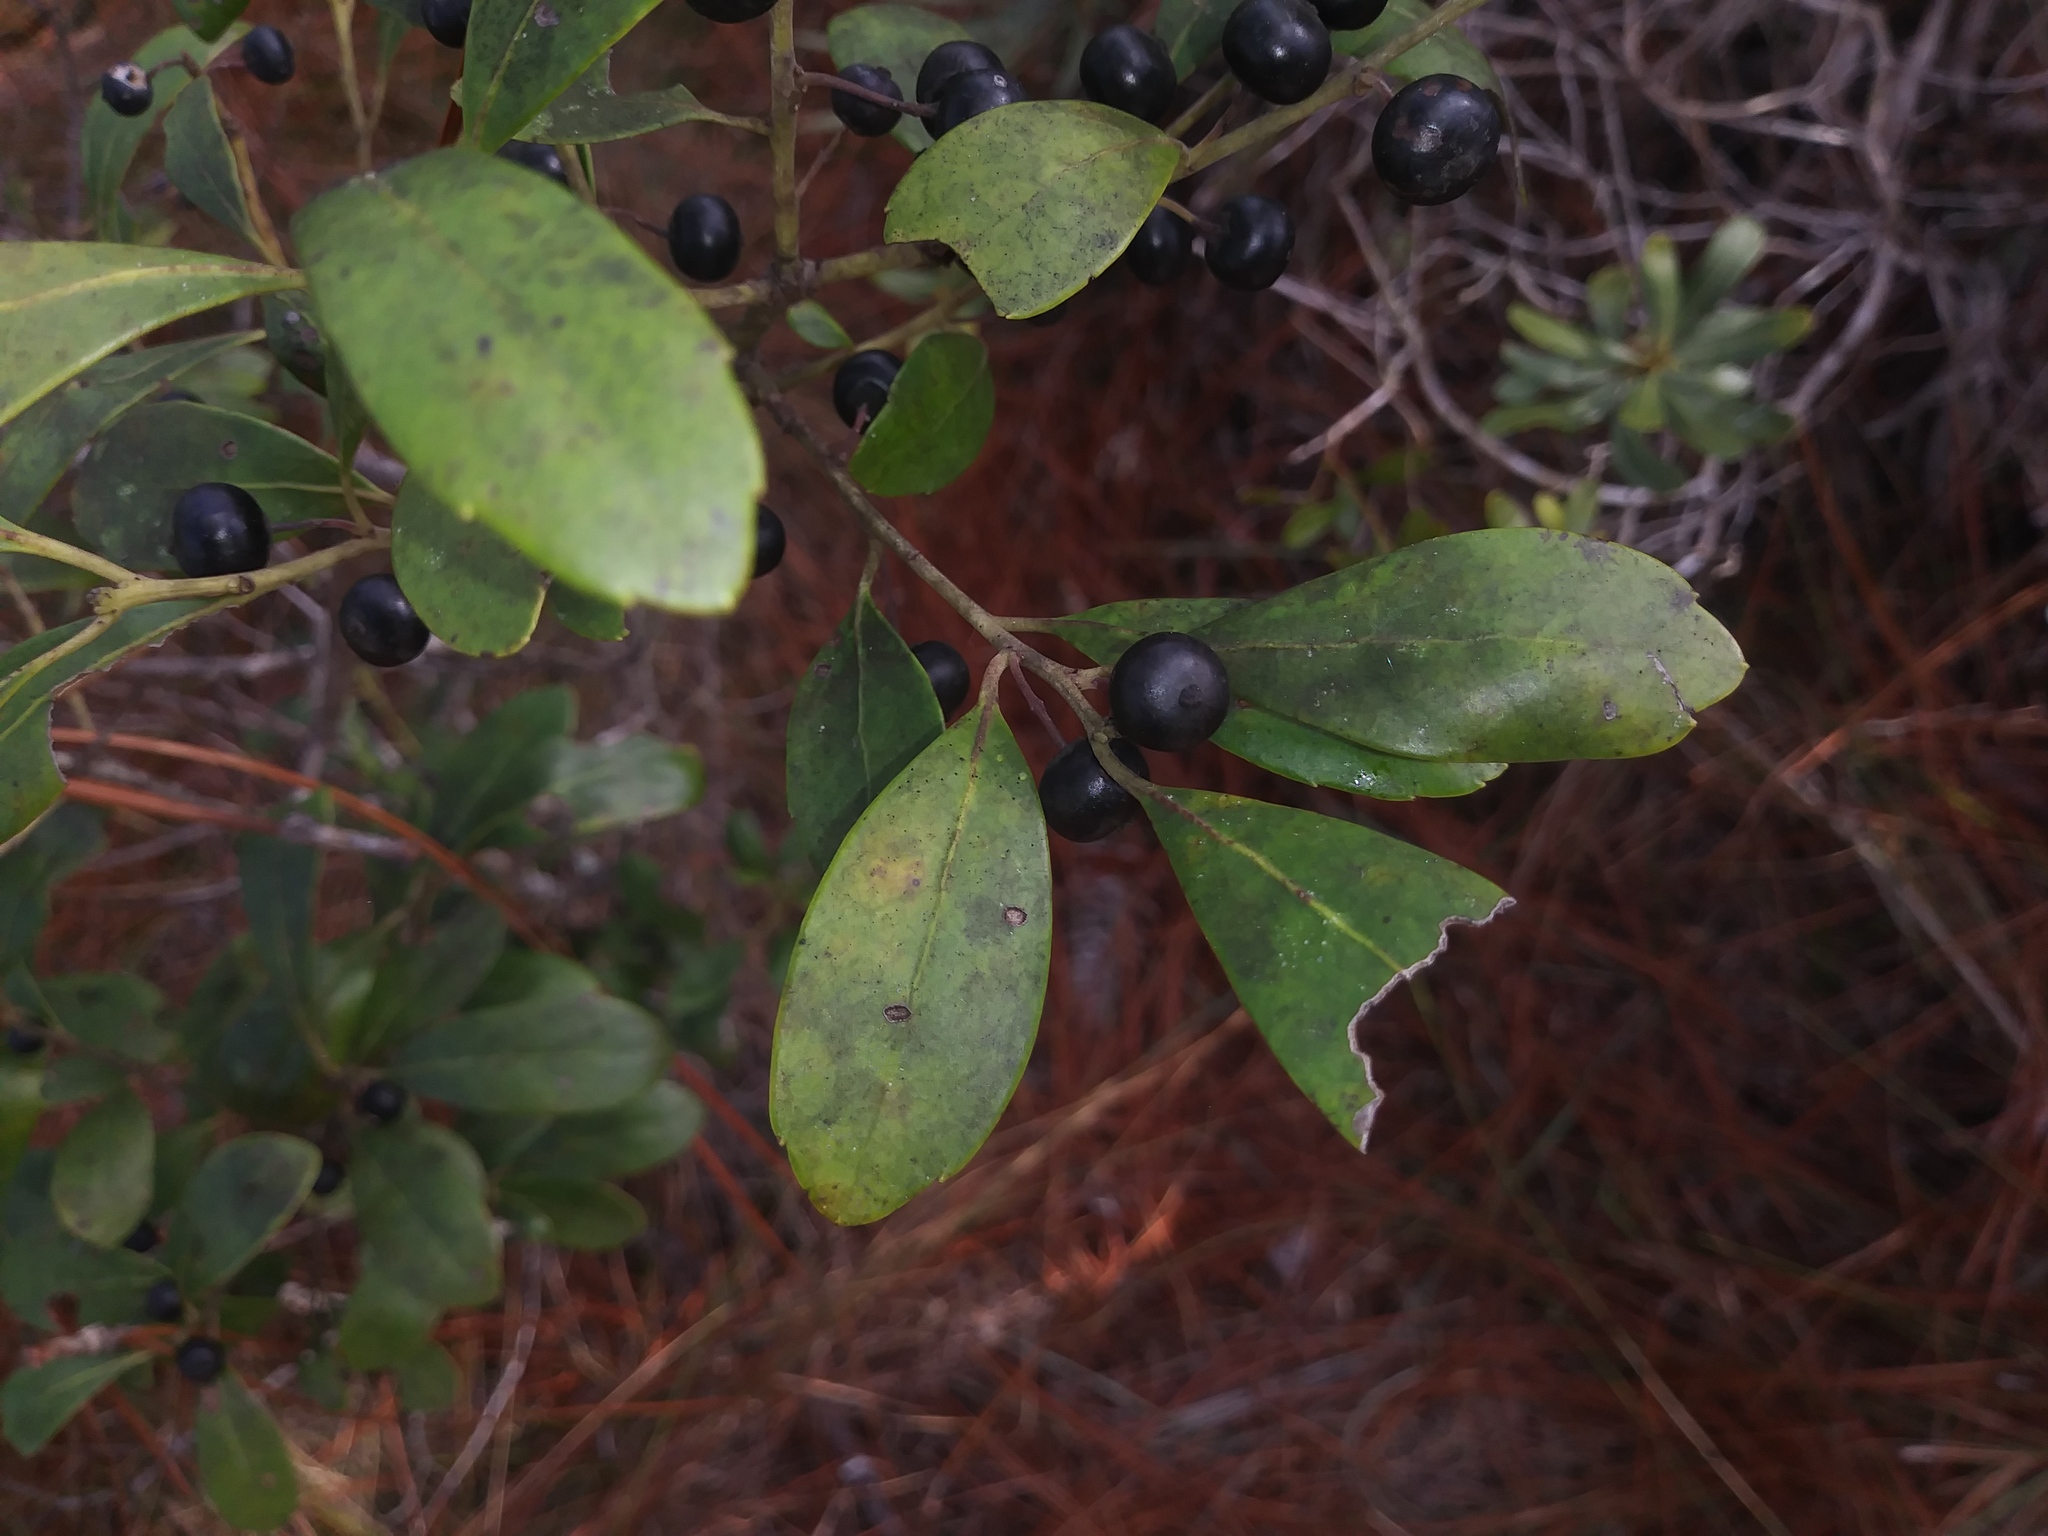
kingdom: Plantae
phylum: Tracheophyta
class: Magnoliopsida
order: Aquifoliales
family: Aquifoliaceae
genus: Ilex
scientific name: Ilex glabra
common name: Bitter gallberry
